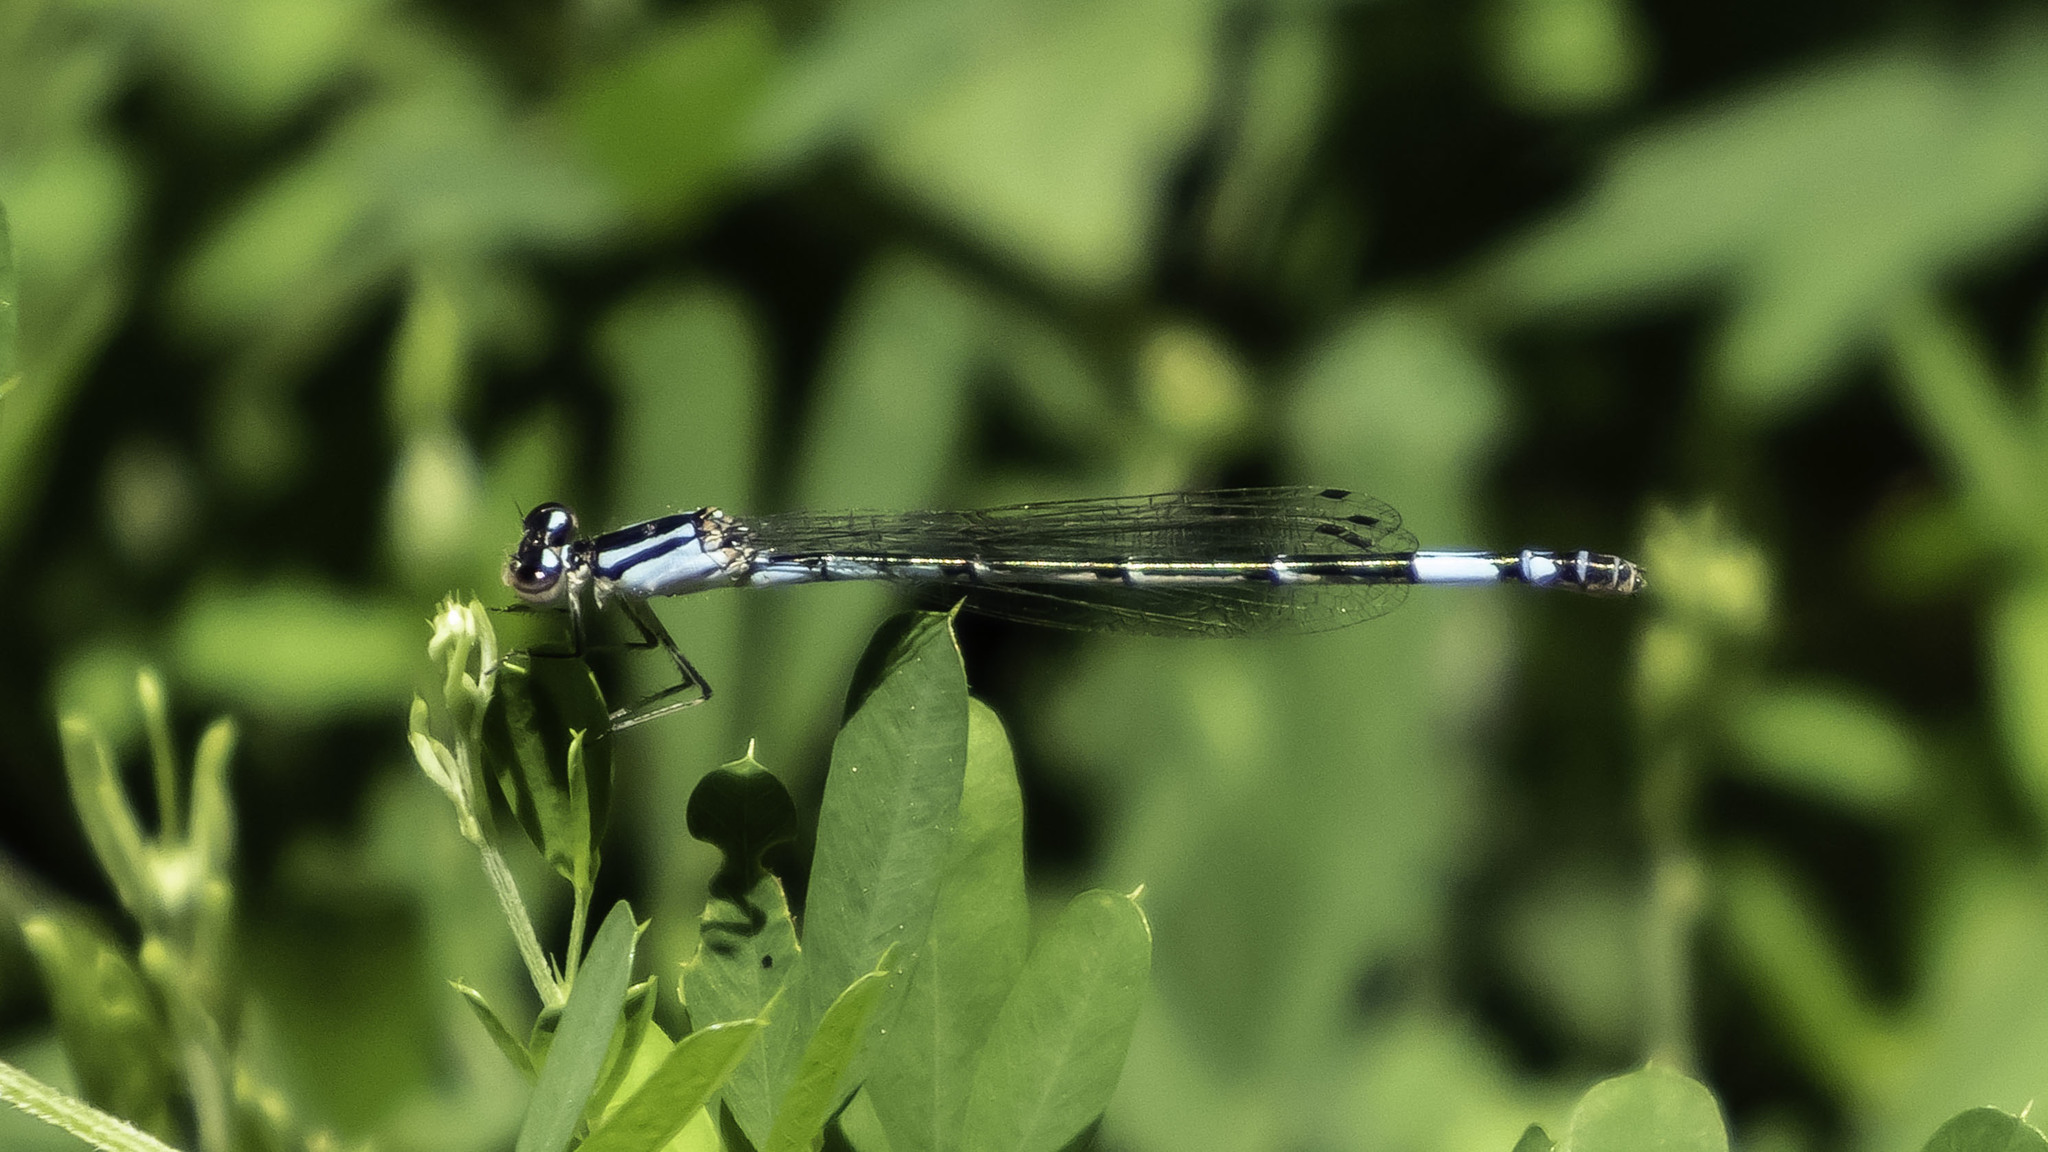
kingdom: Animalia
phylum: Arthropoda
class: Insecta
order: Odonata
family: Coenagrionidae
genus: Enallagma
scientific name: Enallagma aspersum
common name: Azure bluet
